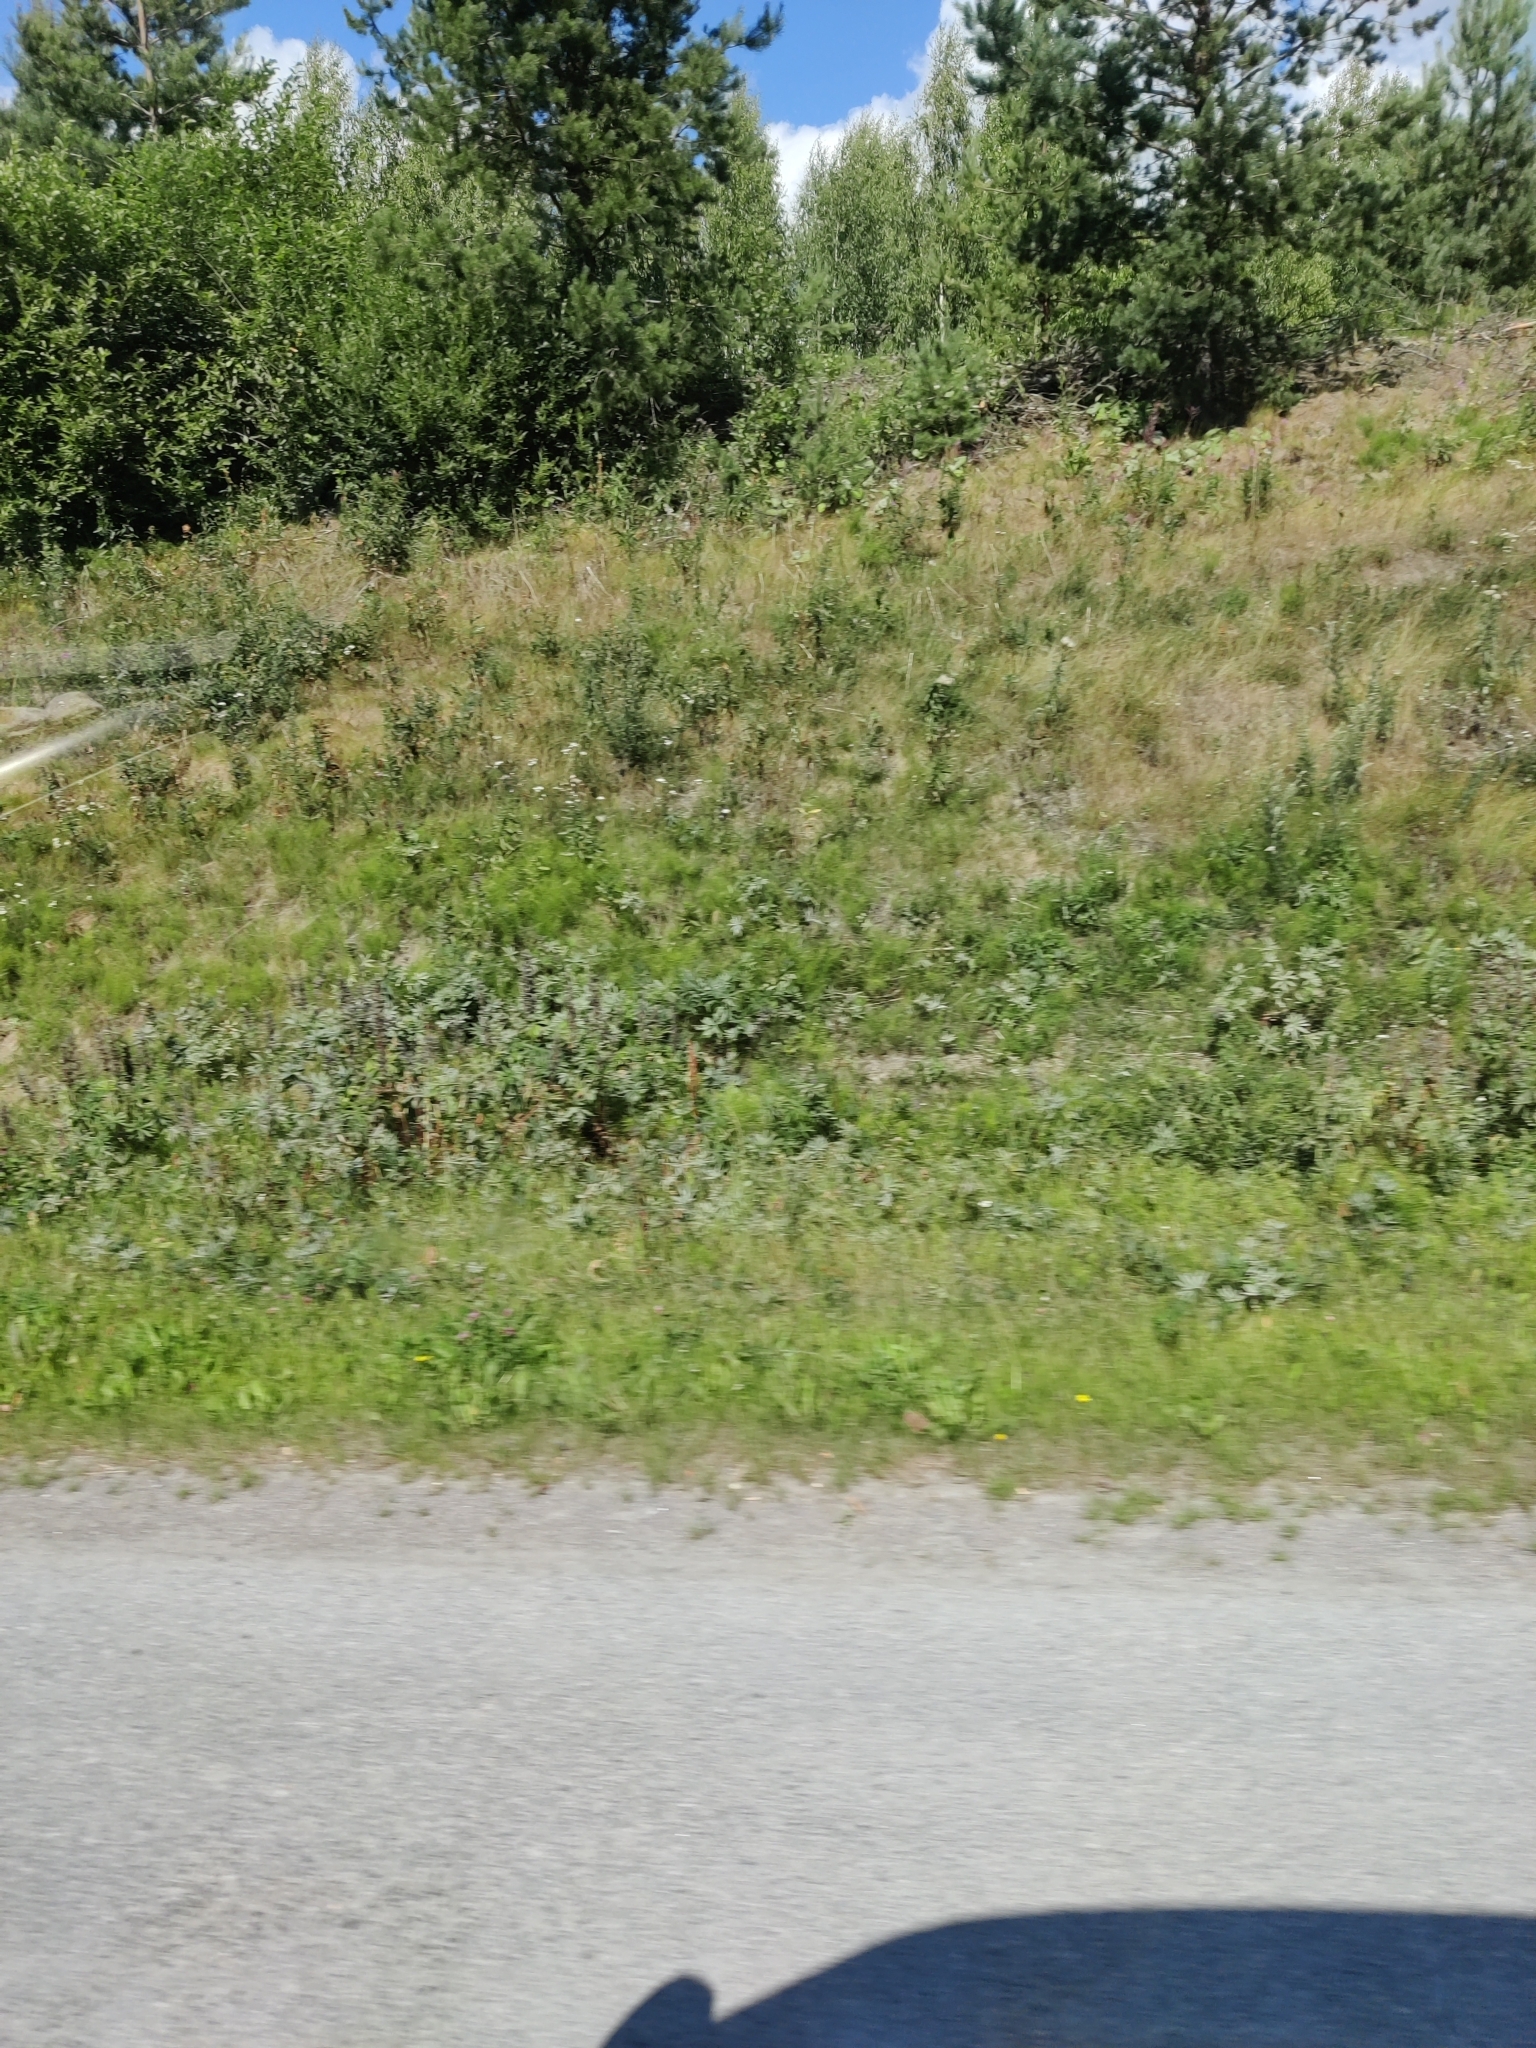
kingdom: Plantae
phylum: Tracheophyta
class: Magnoliopsida
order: Fabales
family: Fabaceae
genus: Lupinus
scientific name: Lupinus polyphyllus
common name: Garden lupin
